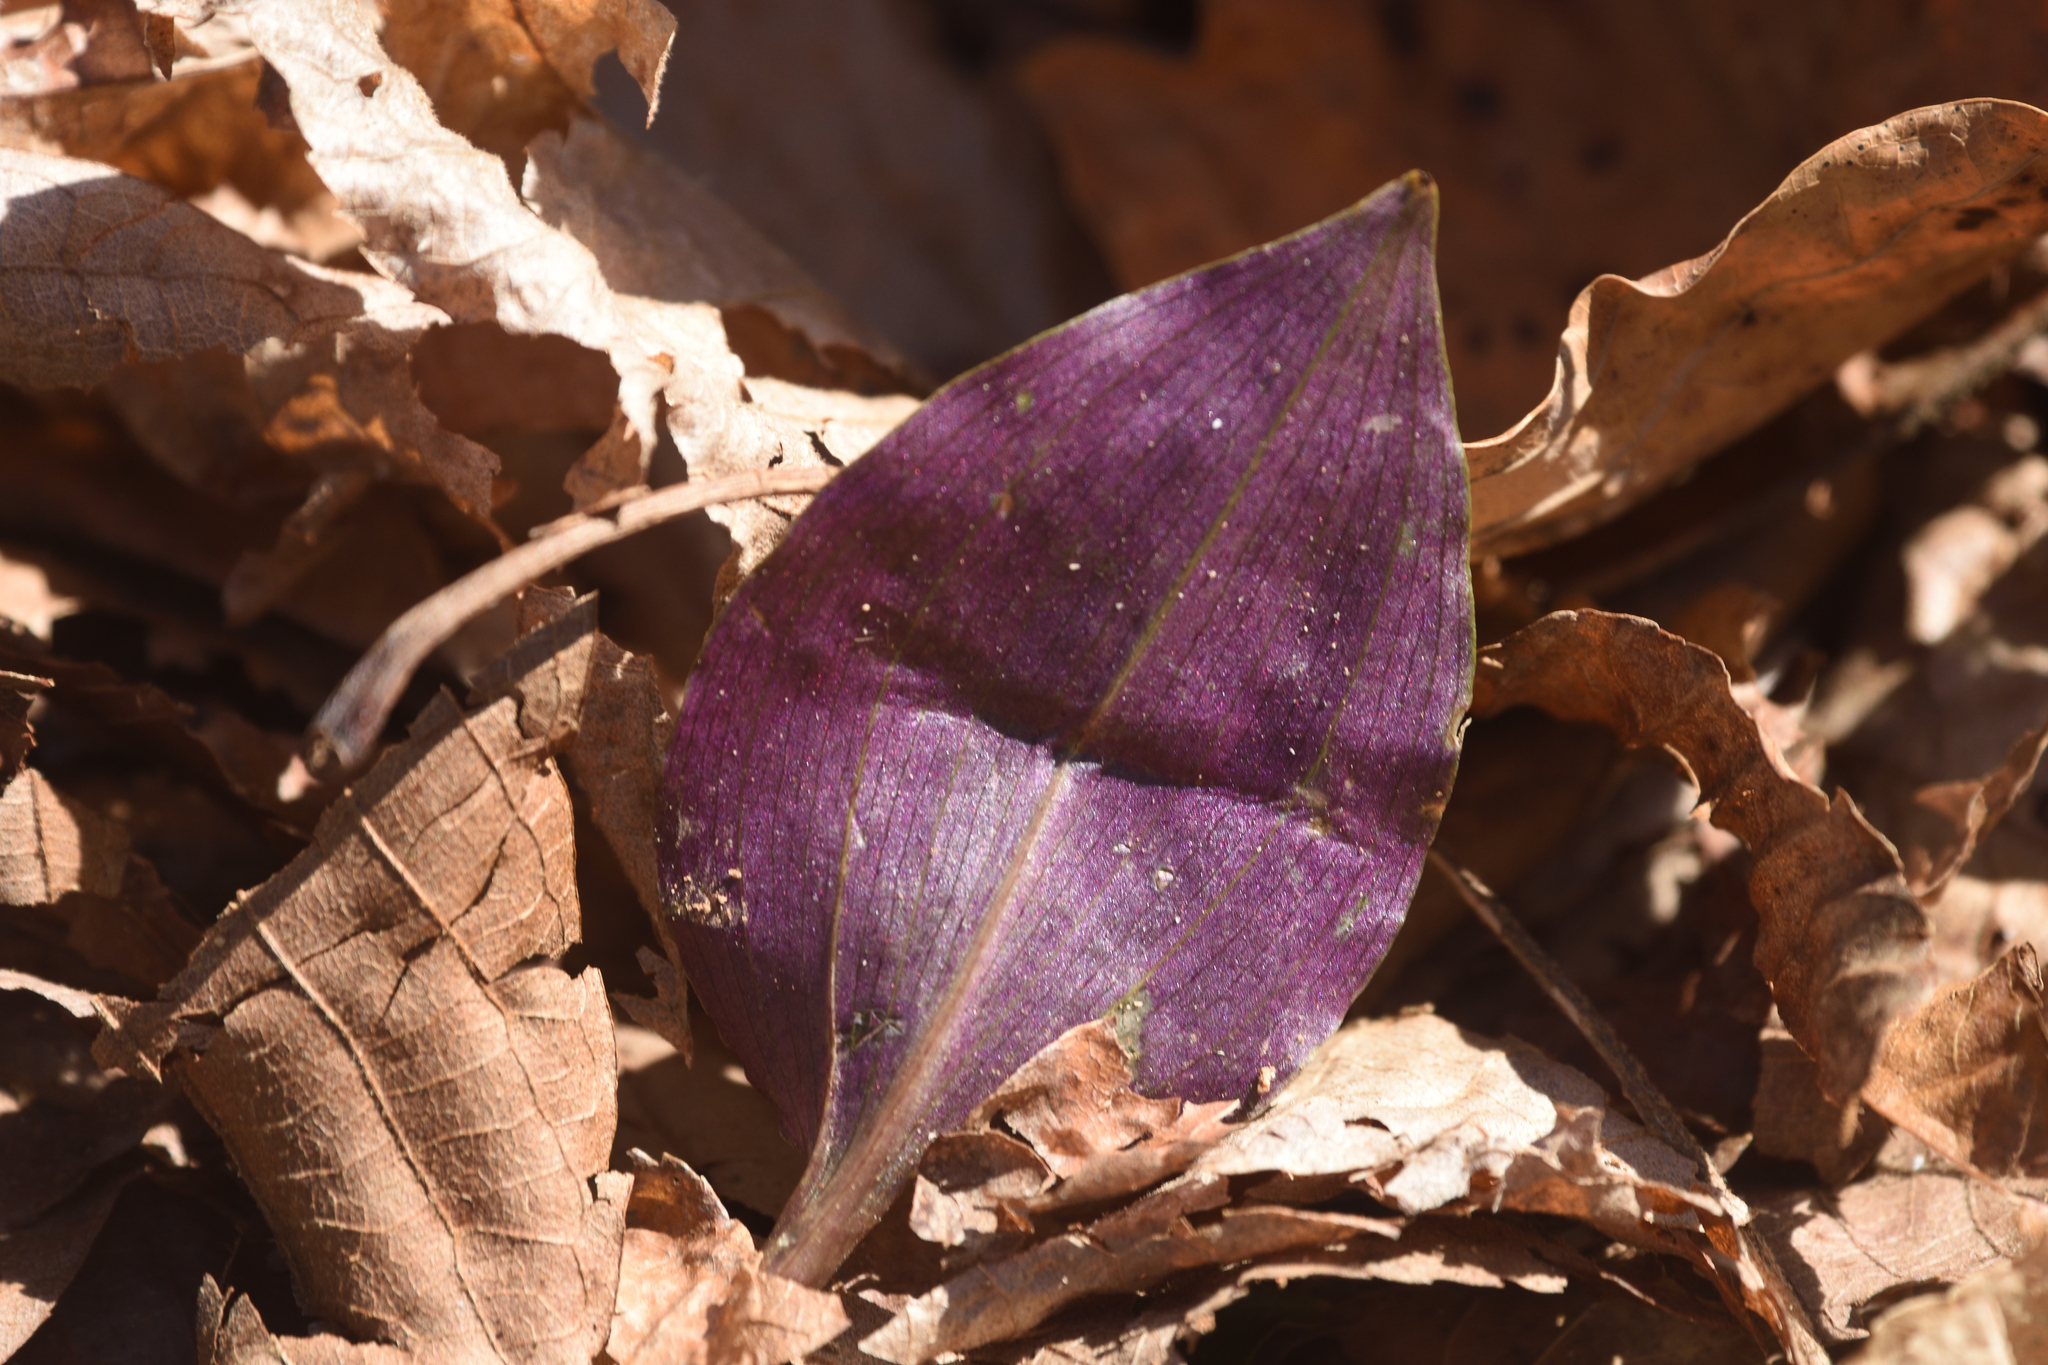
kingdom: Plantae
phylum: Tracheophyta
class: Liliopsida
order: Asparagales
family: Orchidaceae
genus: Tipularia
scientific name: Tipularia discolor
